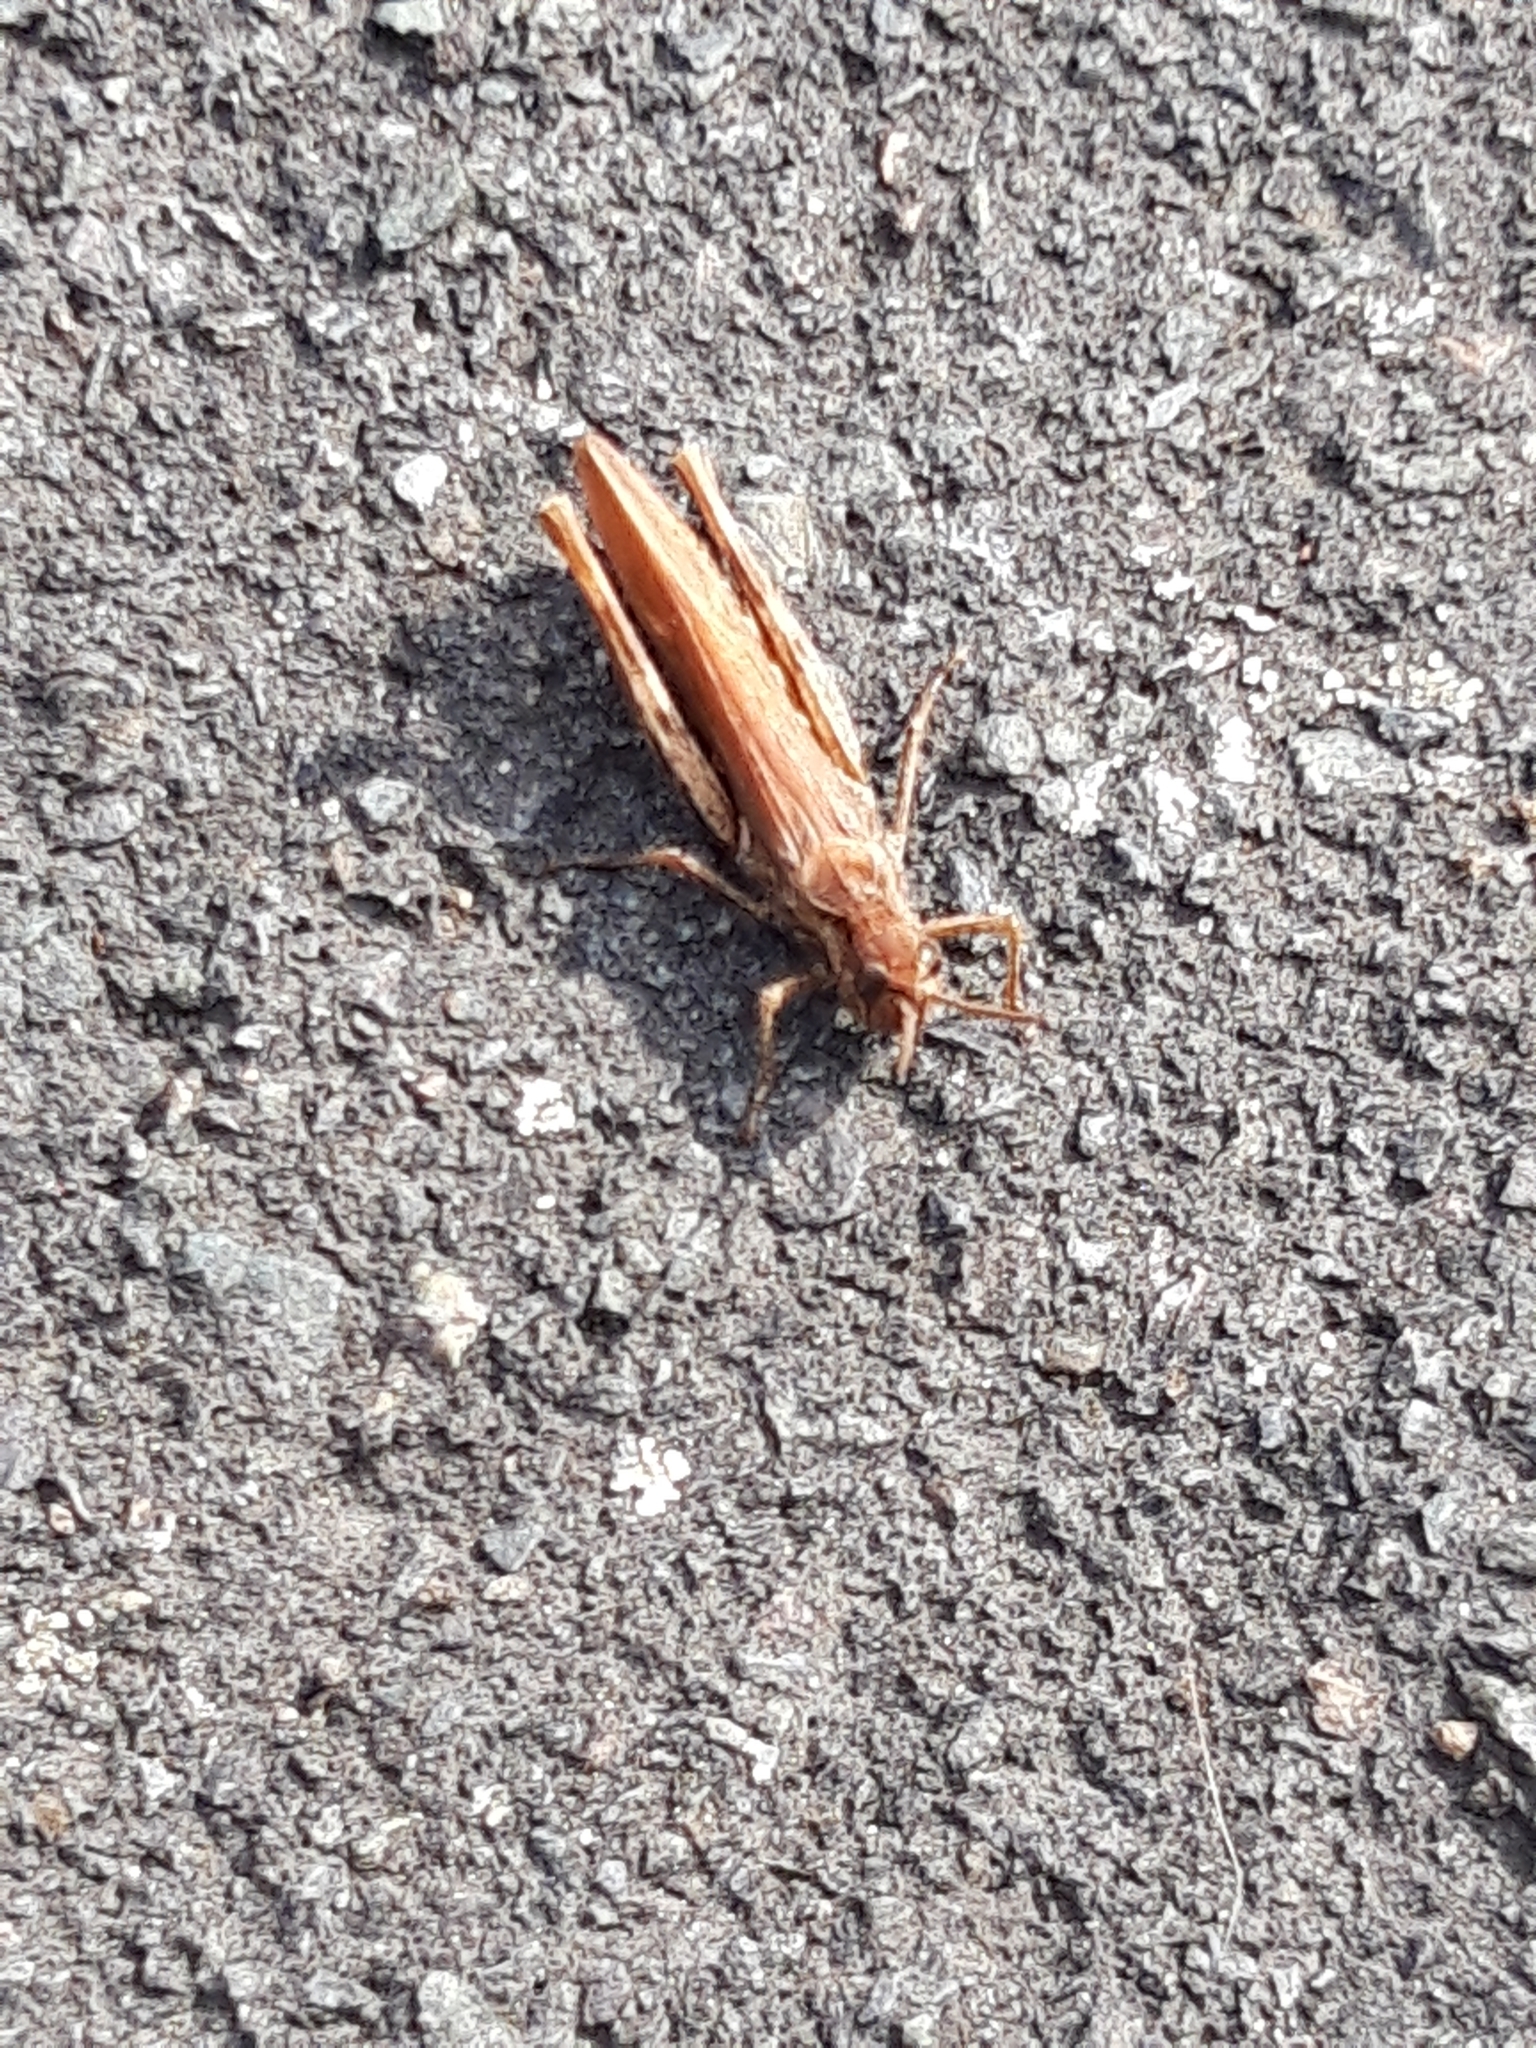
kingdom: Animalia
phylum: Arthropoda
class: Insecta
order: Orthoptera
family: Acrididae
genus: Chorthippus
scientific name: Chorthippus brunneus
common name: Field grasshopper
